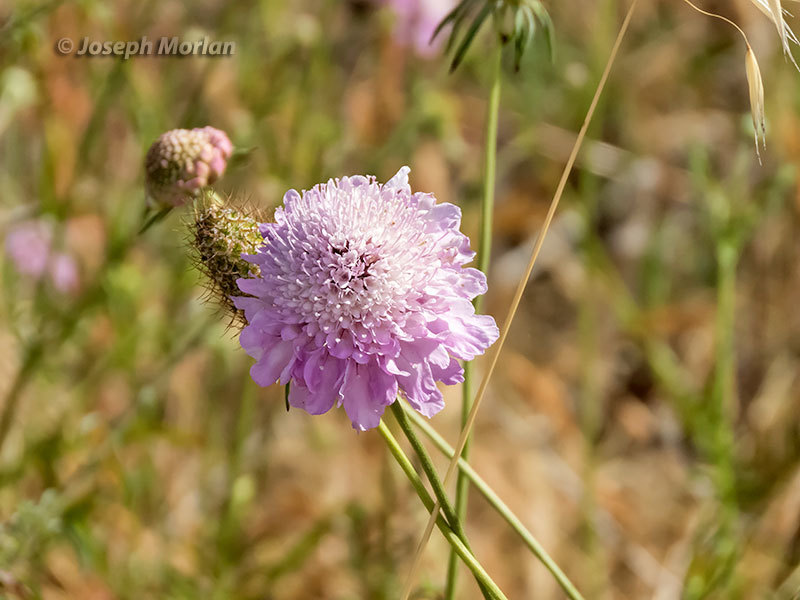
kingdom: Plantae
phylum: Tracheophyta
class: Magnoliopsida
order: Dipsacales
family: Caprifoliaceae
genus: Sixalix
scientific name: Sixalix atropurpurea
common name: Sweet scabious
